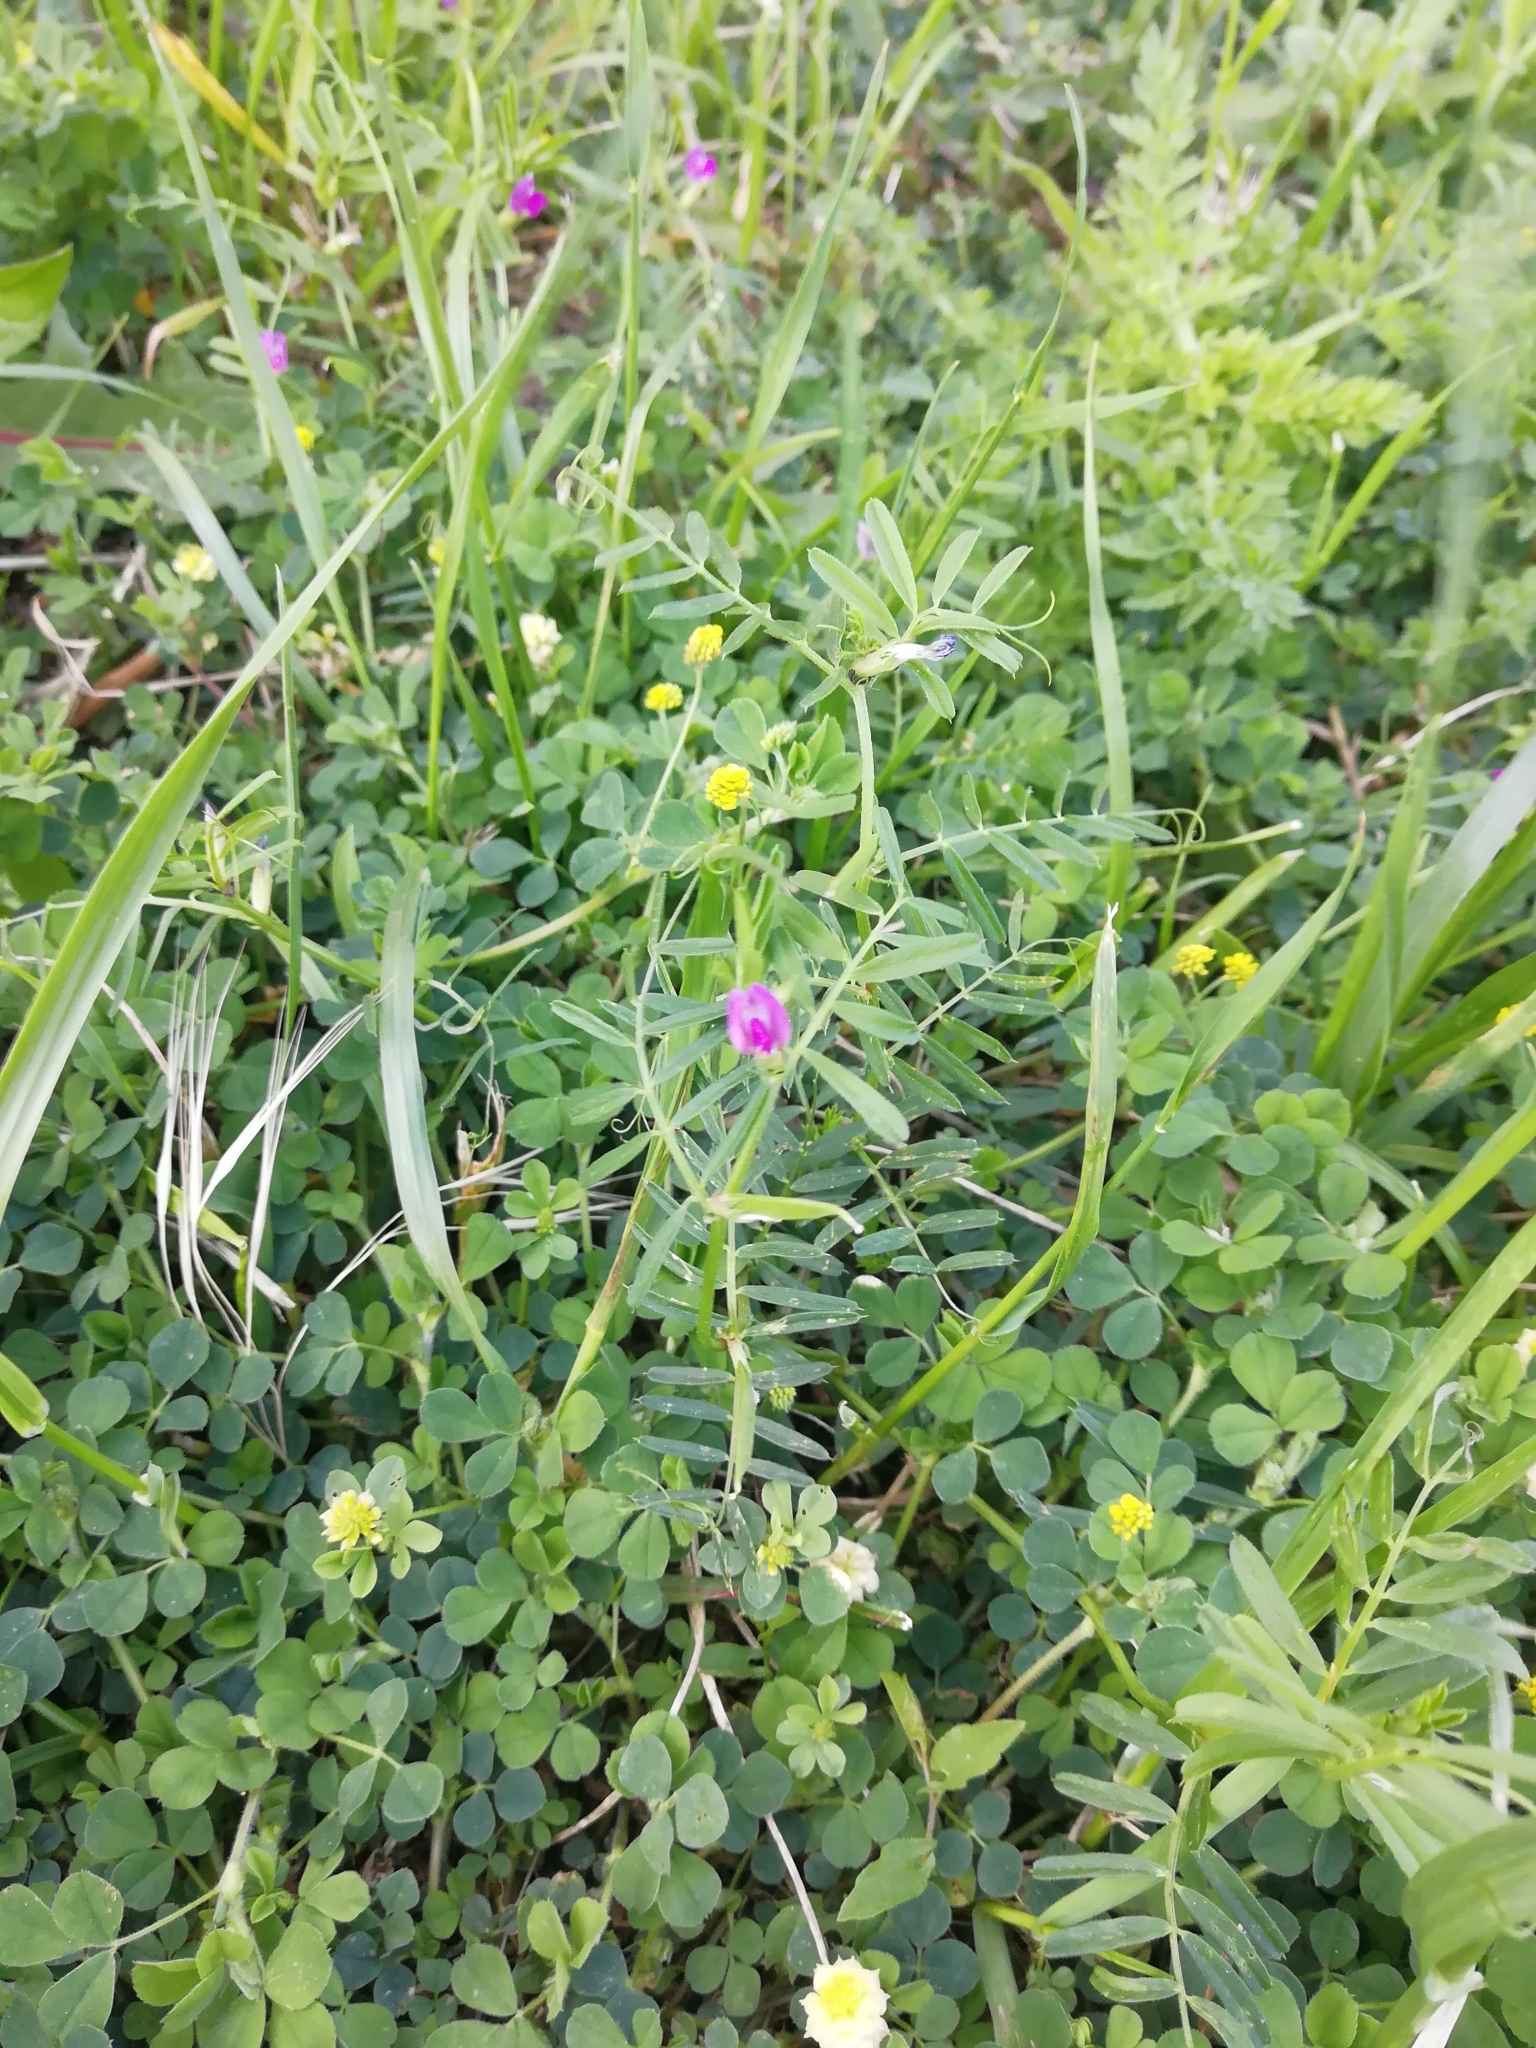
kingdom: Plantae
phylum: Tracheophyta
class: Magnoliopsida
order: Fabales
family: Fabaceae
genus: Vicia
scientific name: Vicia sativa
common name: Garden vetch
